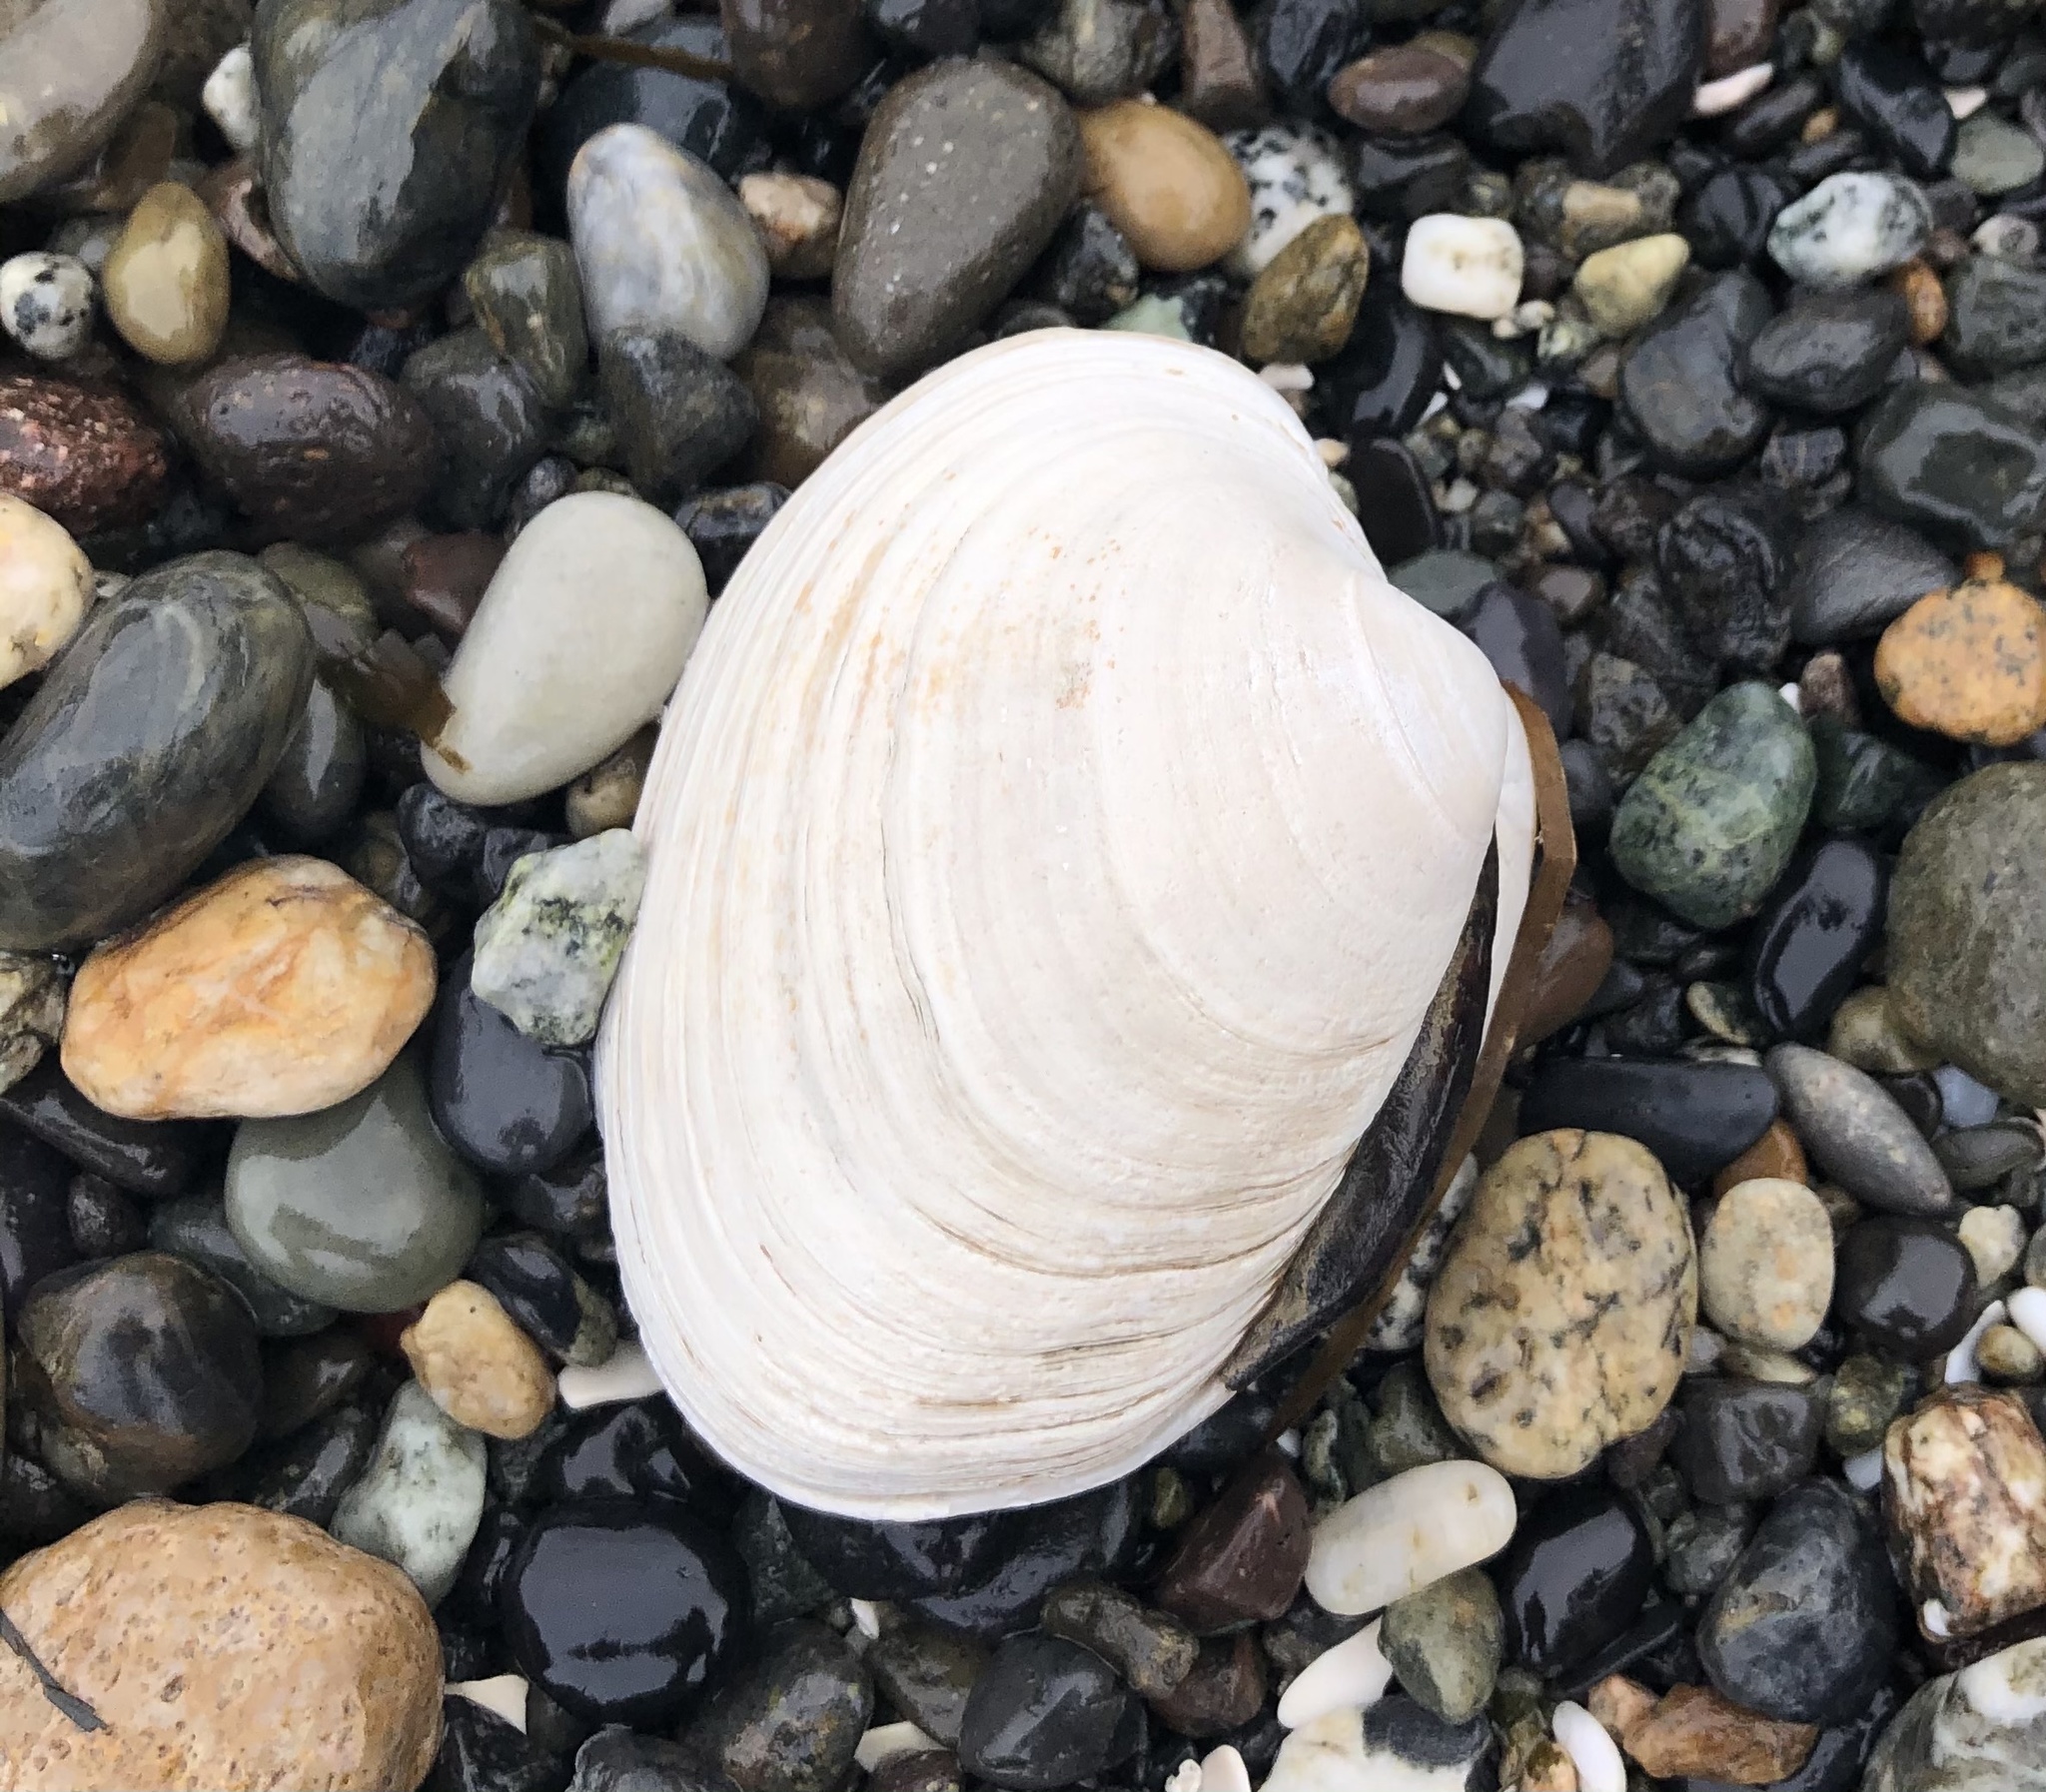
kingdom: Animalia
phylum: Mollusca
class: Bivalvia
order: Venerida
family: Veneridae
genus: Saxidomus
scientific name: Saxidomus gigantea
